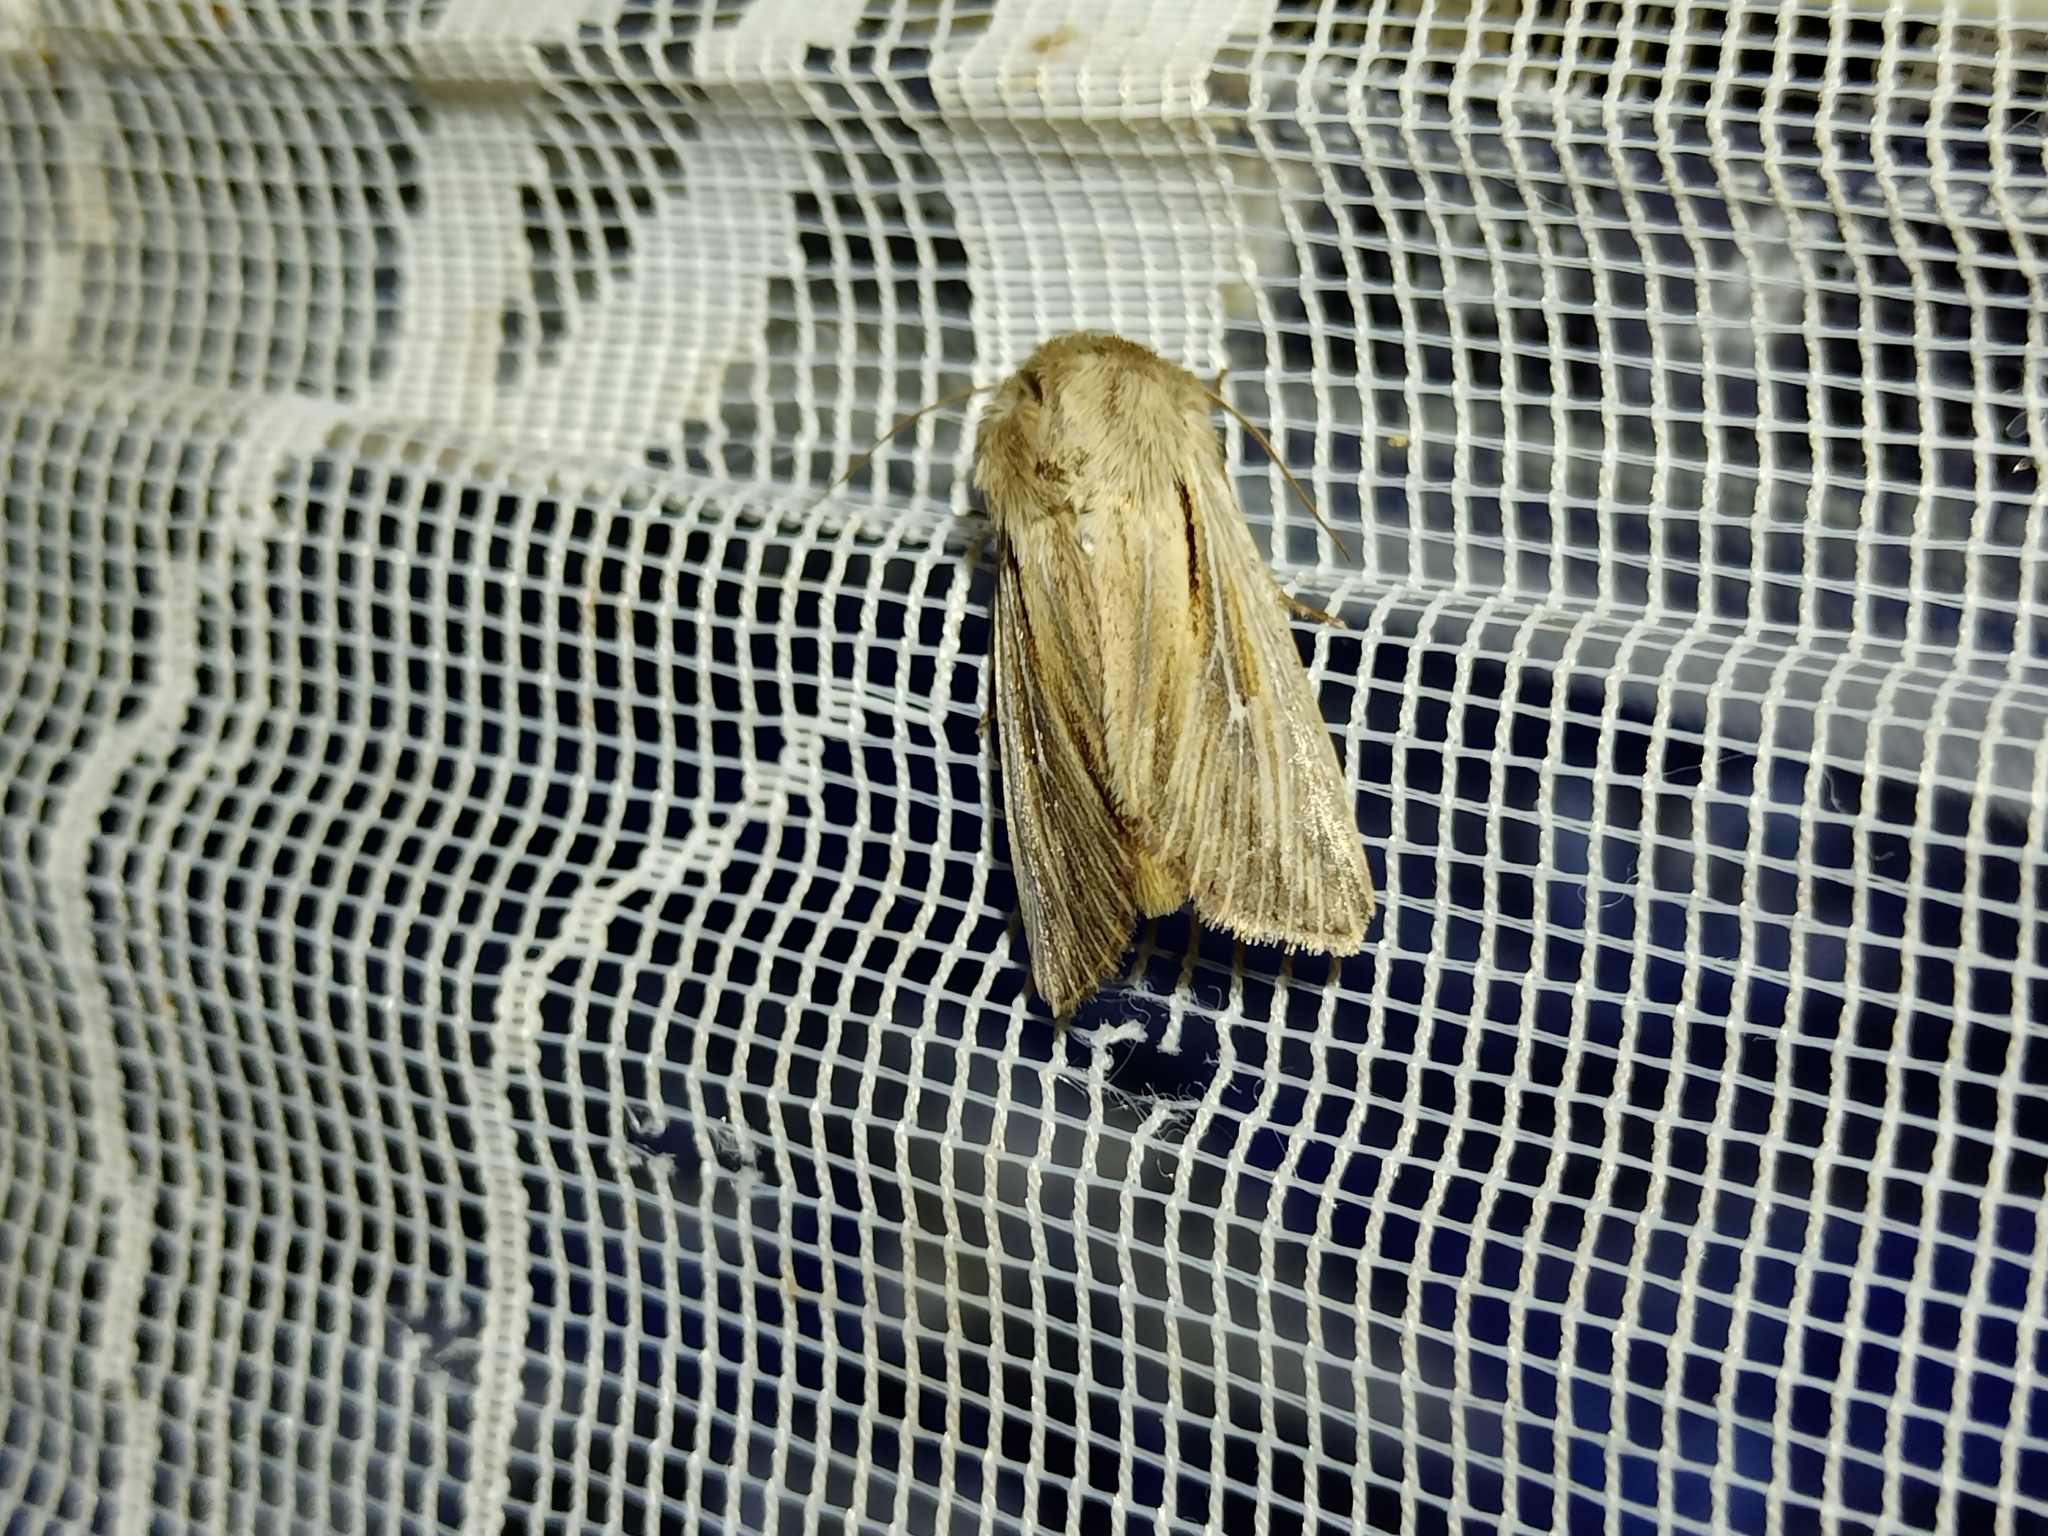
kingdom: Animalia
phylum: Arthropoda
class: Insecta
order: Lepidoptera
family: Noctuidae
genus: Leucania
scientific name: Leucania comma
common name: Shoulder-striped wainscot
